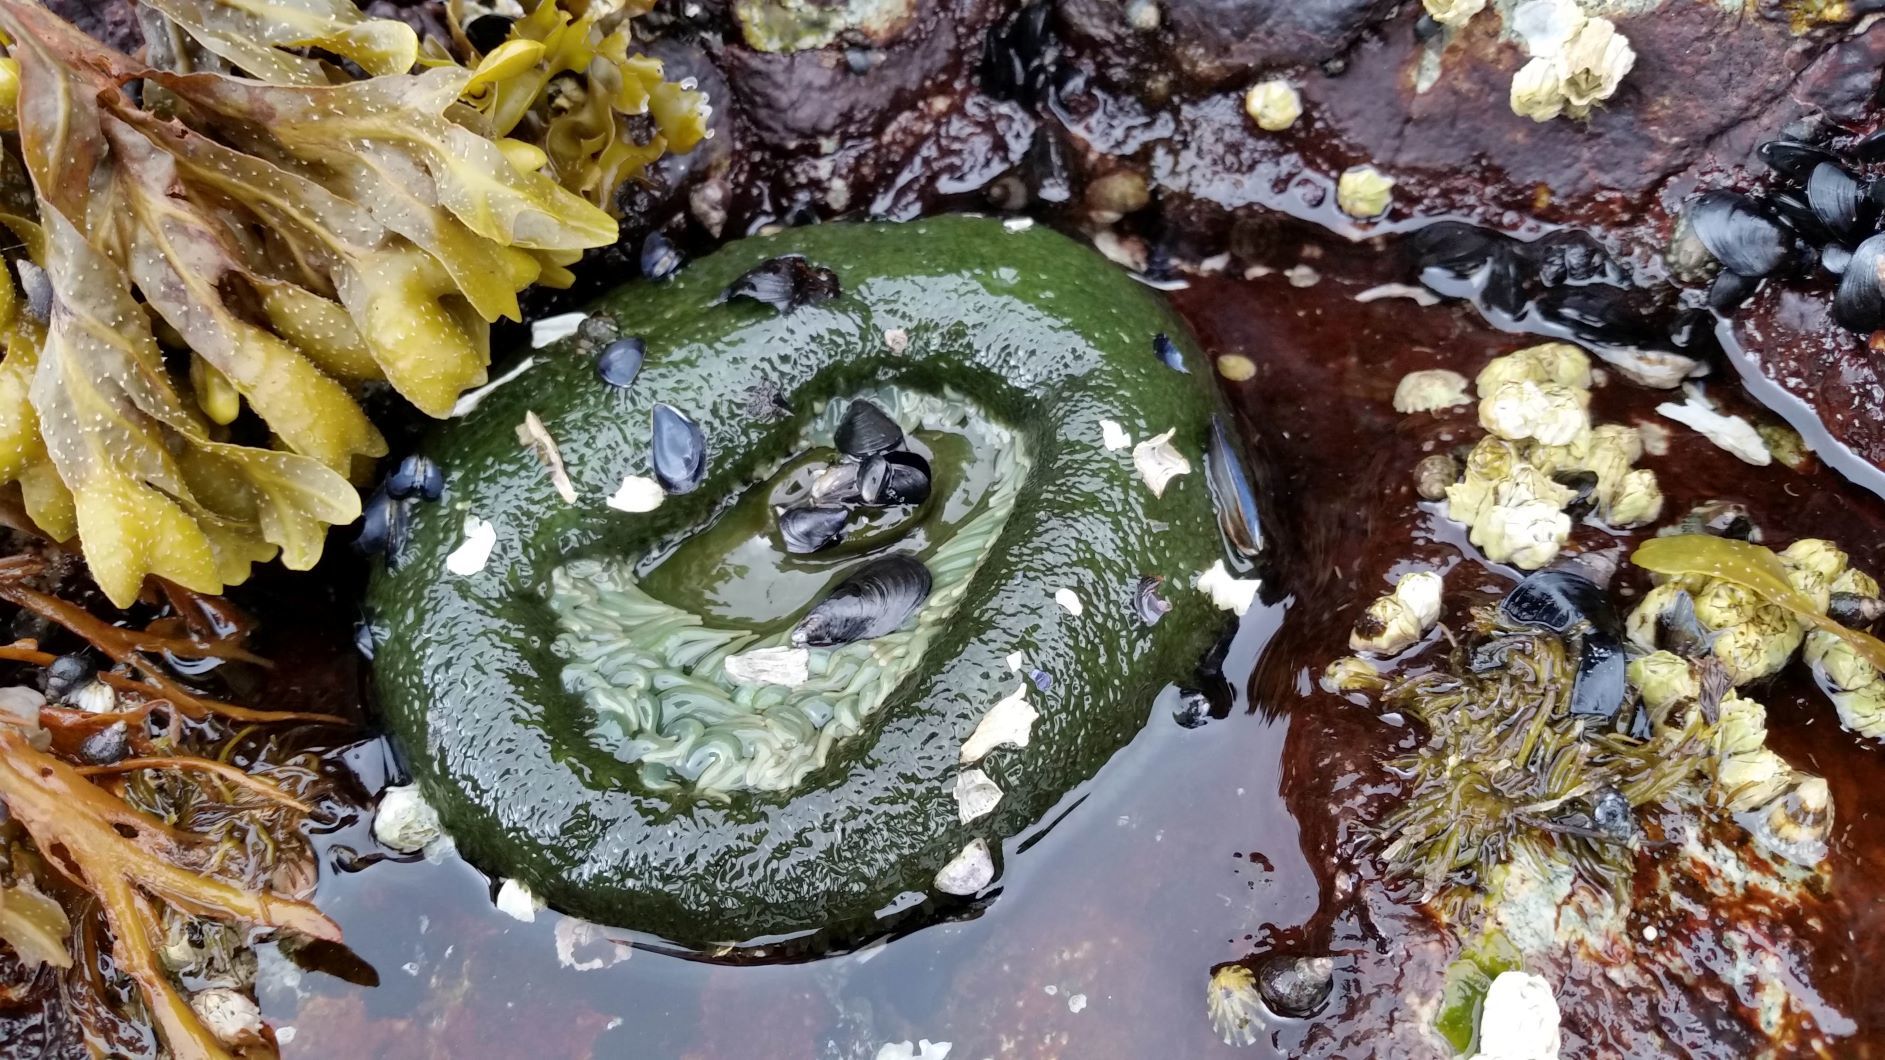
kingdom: Animalia
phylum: Cnidaria
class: Anthozoa
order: Actiniaria
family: Actiniidae
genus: Anthopleura
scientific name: Anthopleura xanthogrammica
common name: Giant green anemone
